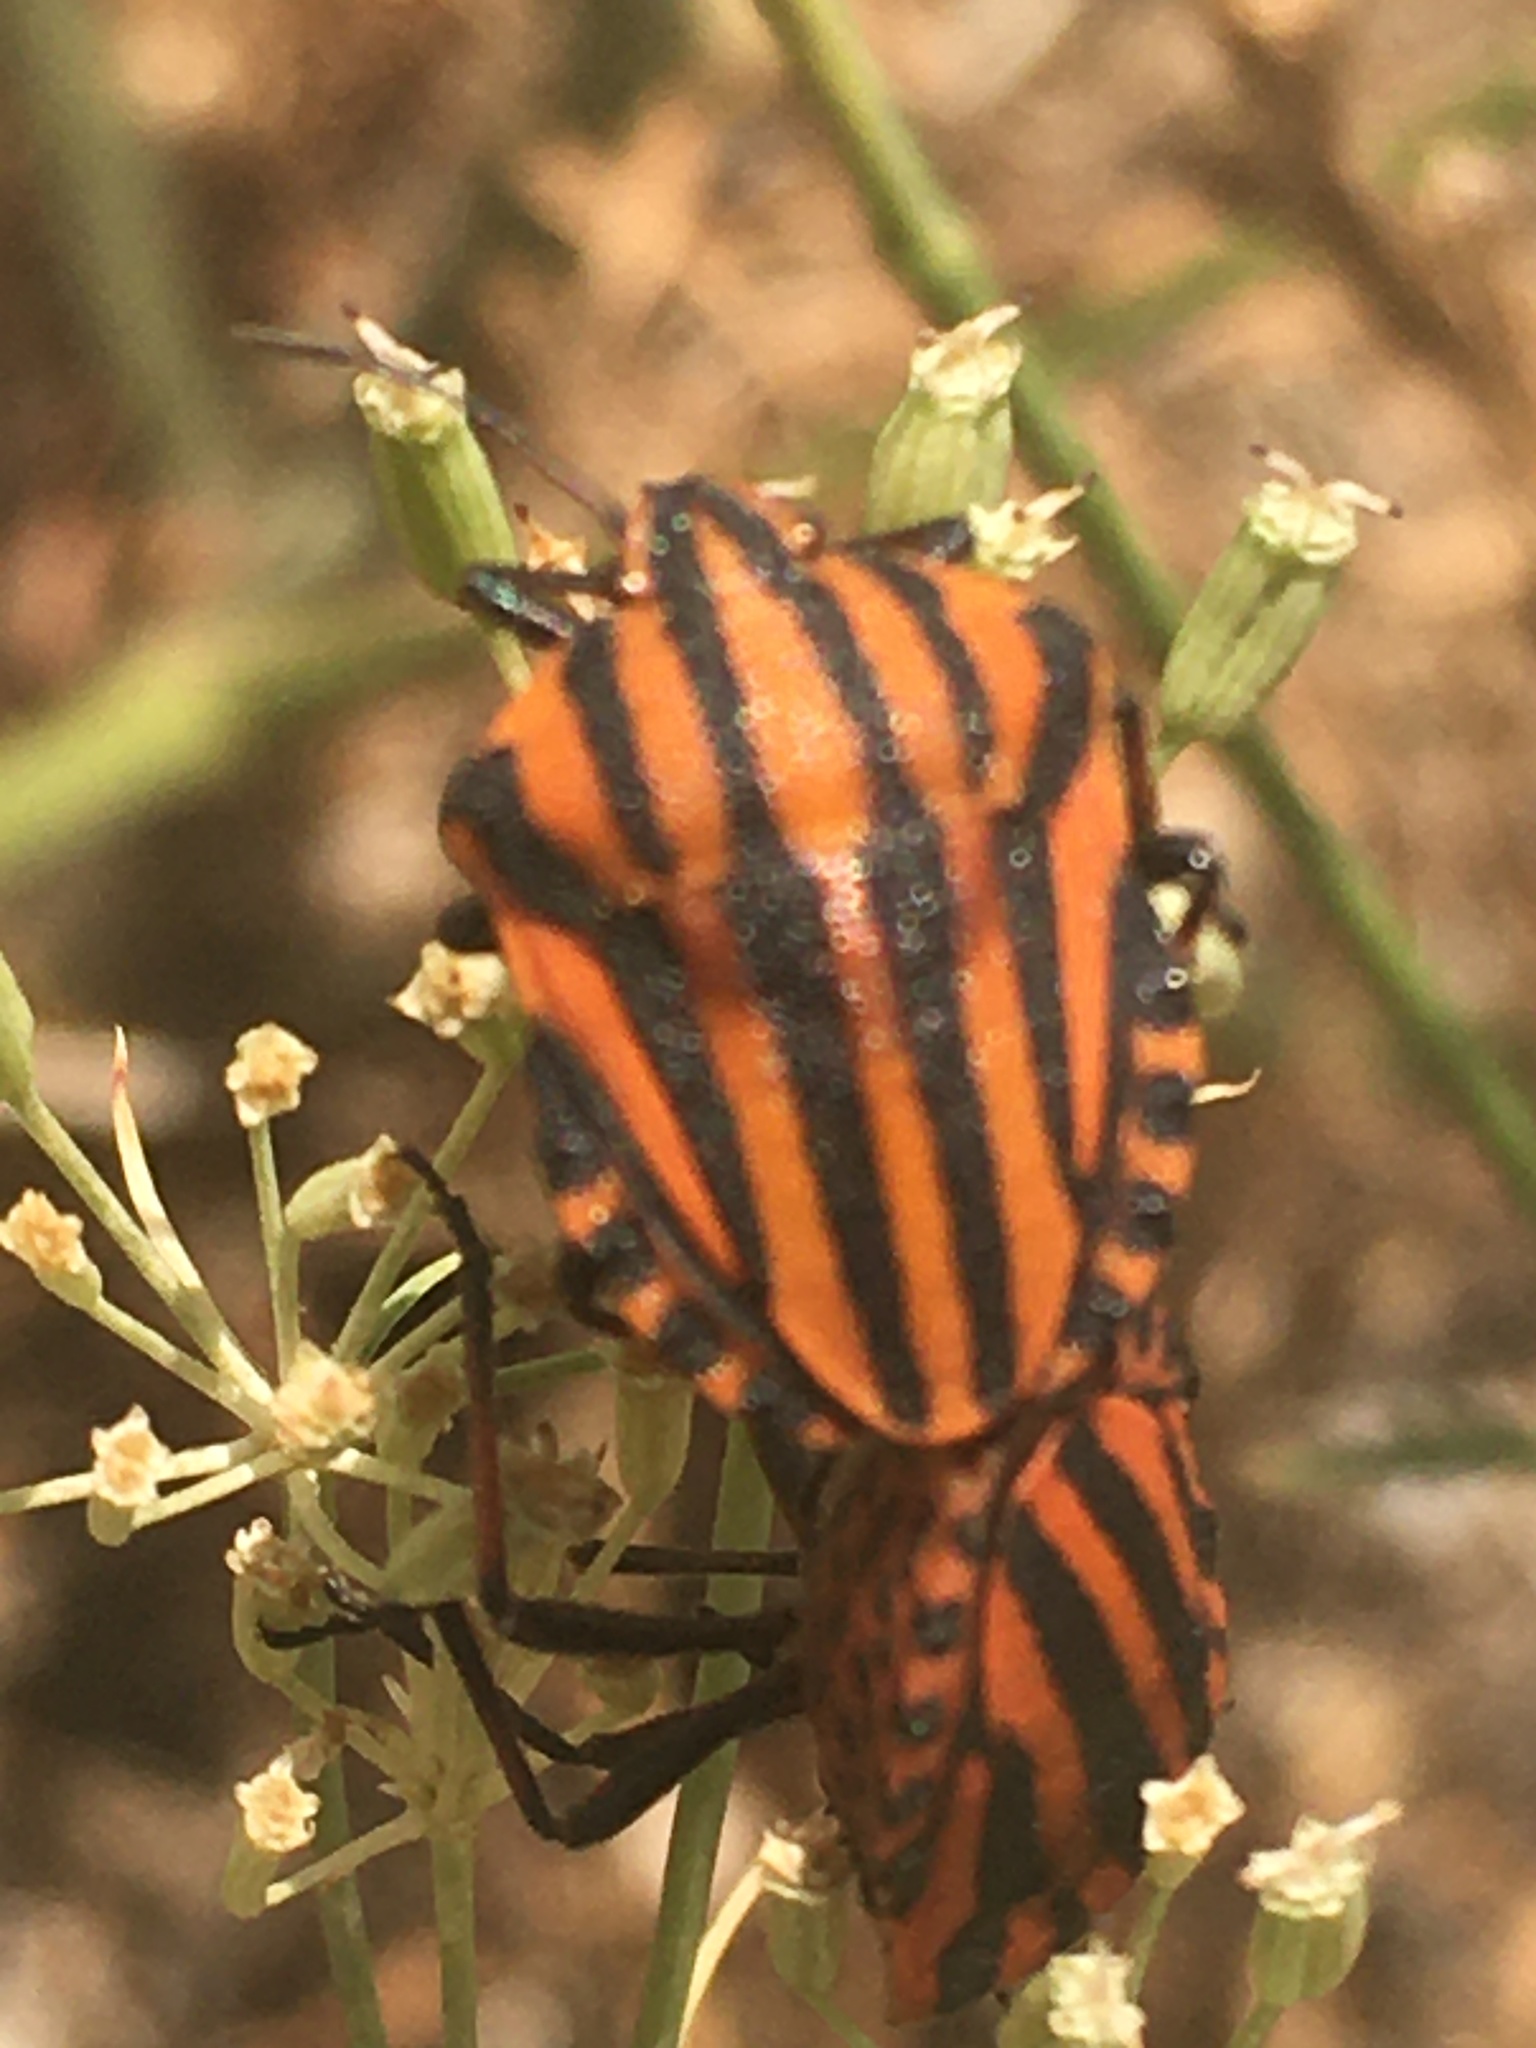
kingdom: Animalia
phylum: Arthropoda
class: Insecta
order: Hemiptera
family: Pentatomidae
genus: Graphosoma
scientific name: Graphosoma italicum
